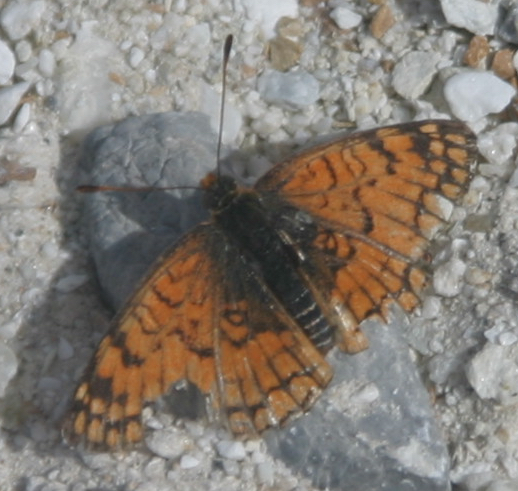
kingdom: Animalia
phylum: Arthropoda
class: Insecta
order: Lepidoptera
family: Nymphalidae
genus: Chlosyne
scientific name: Chlosyne acastus
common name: Sagebrush checkerspot
